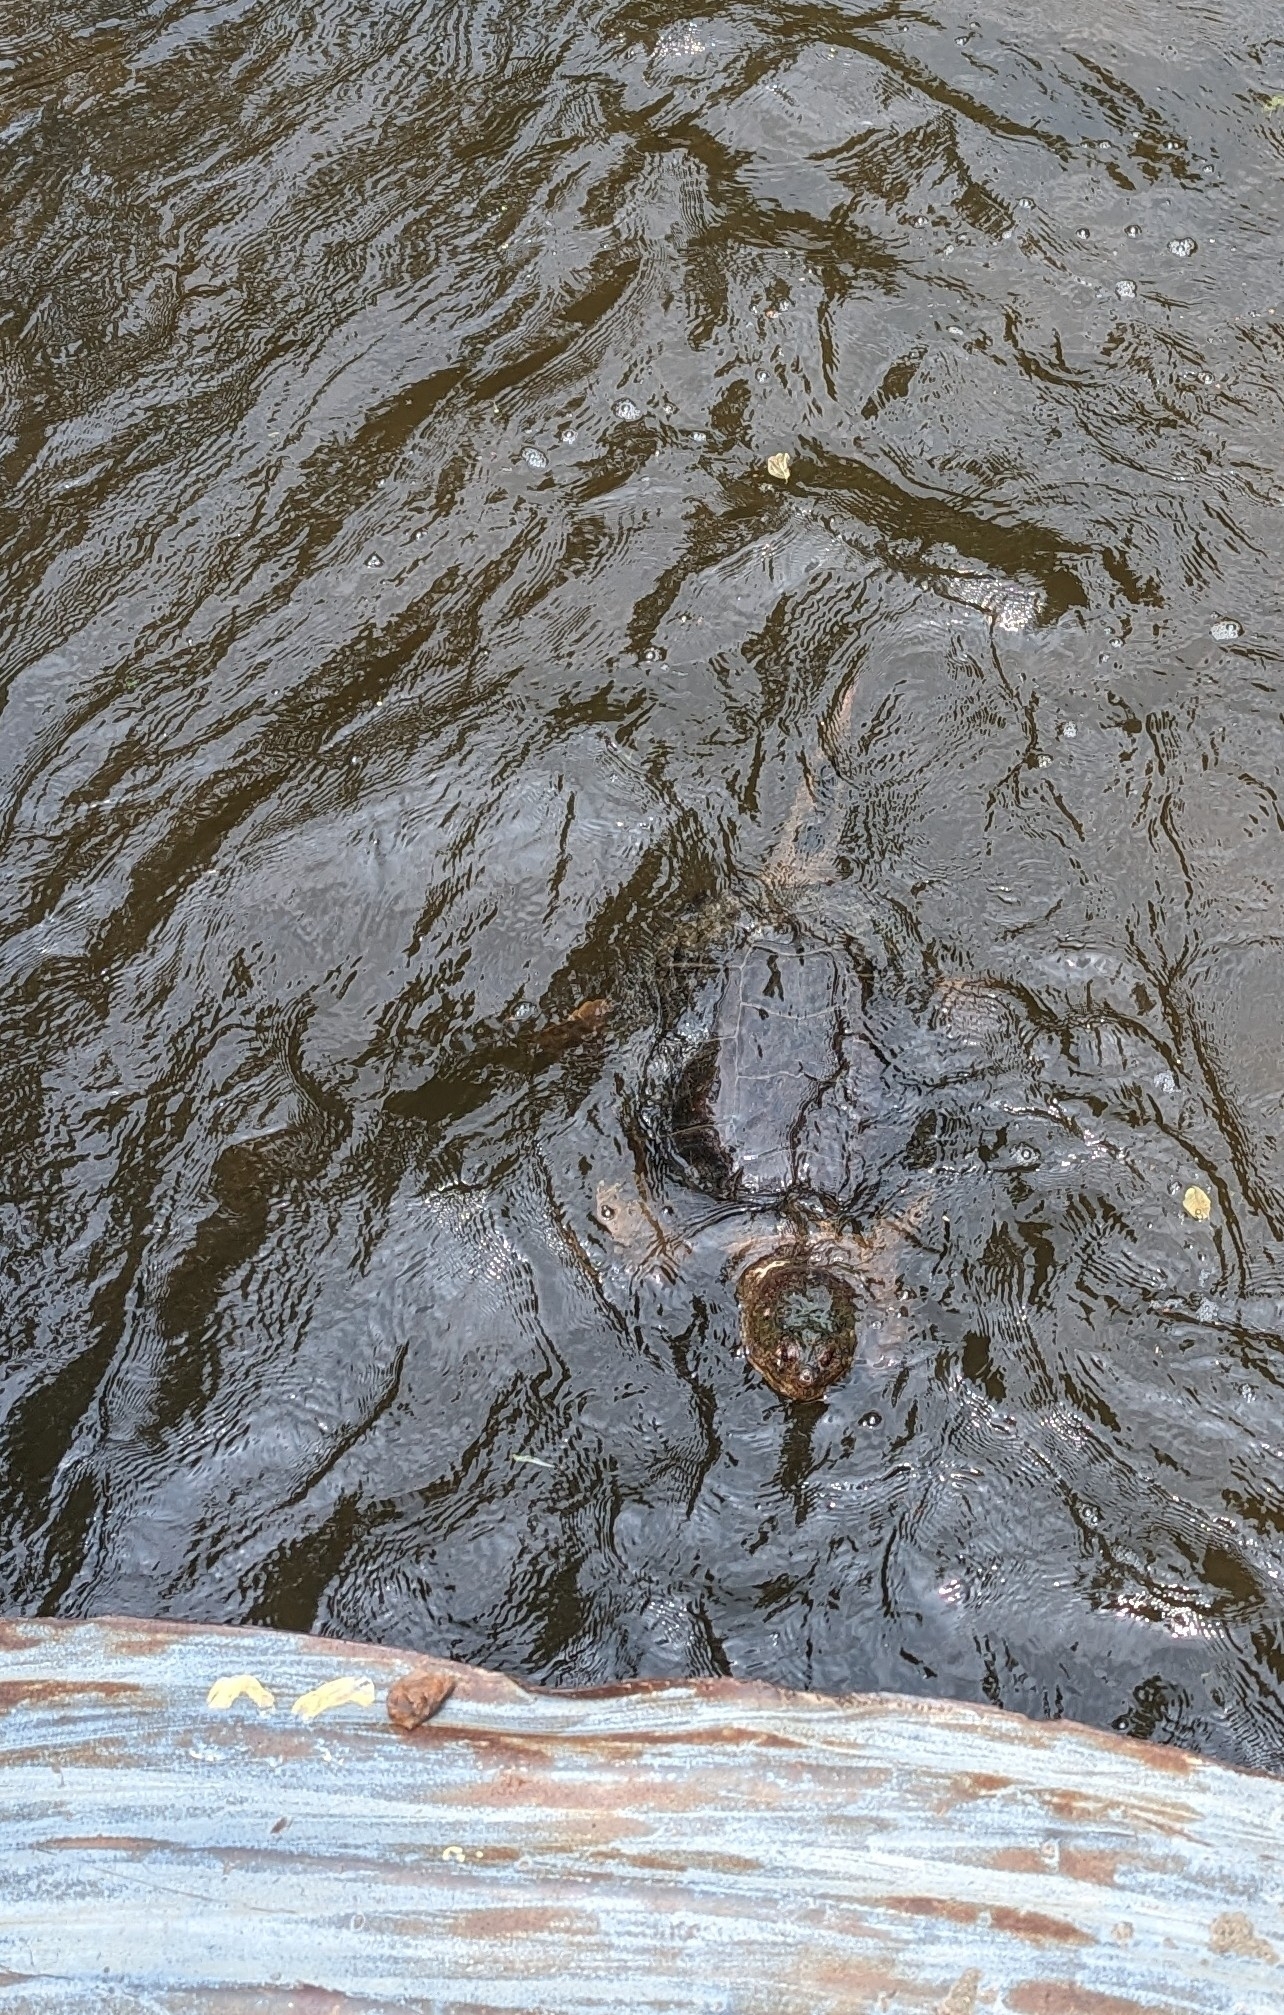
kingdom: Animalia
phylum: Chordata
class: Testudines
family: Chelydridae
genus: Chelydra
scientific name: Chelydra serpentina
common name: Common snapping turtle
